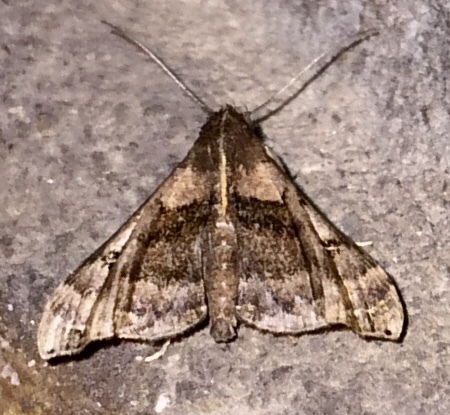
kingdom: Animalia
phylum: Arthropoda
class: Insecta
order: Lepidoptera
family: Erebidae
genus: Palthis
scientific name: Palthis asopialis
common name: Faint-spotted palthis moth
